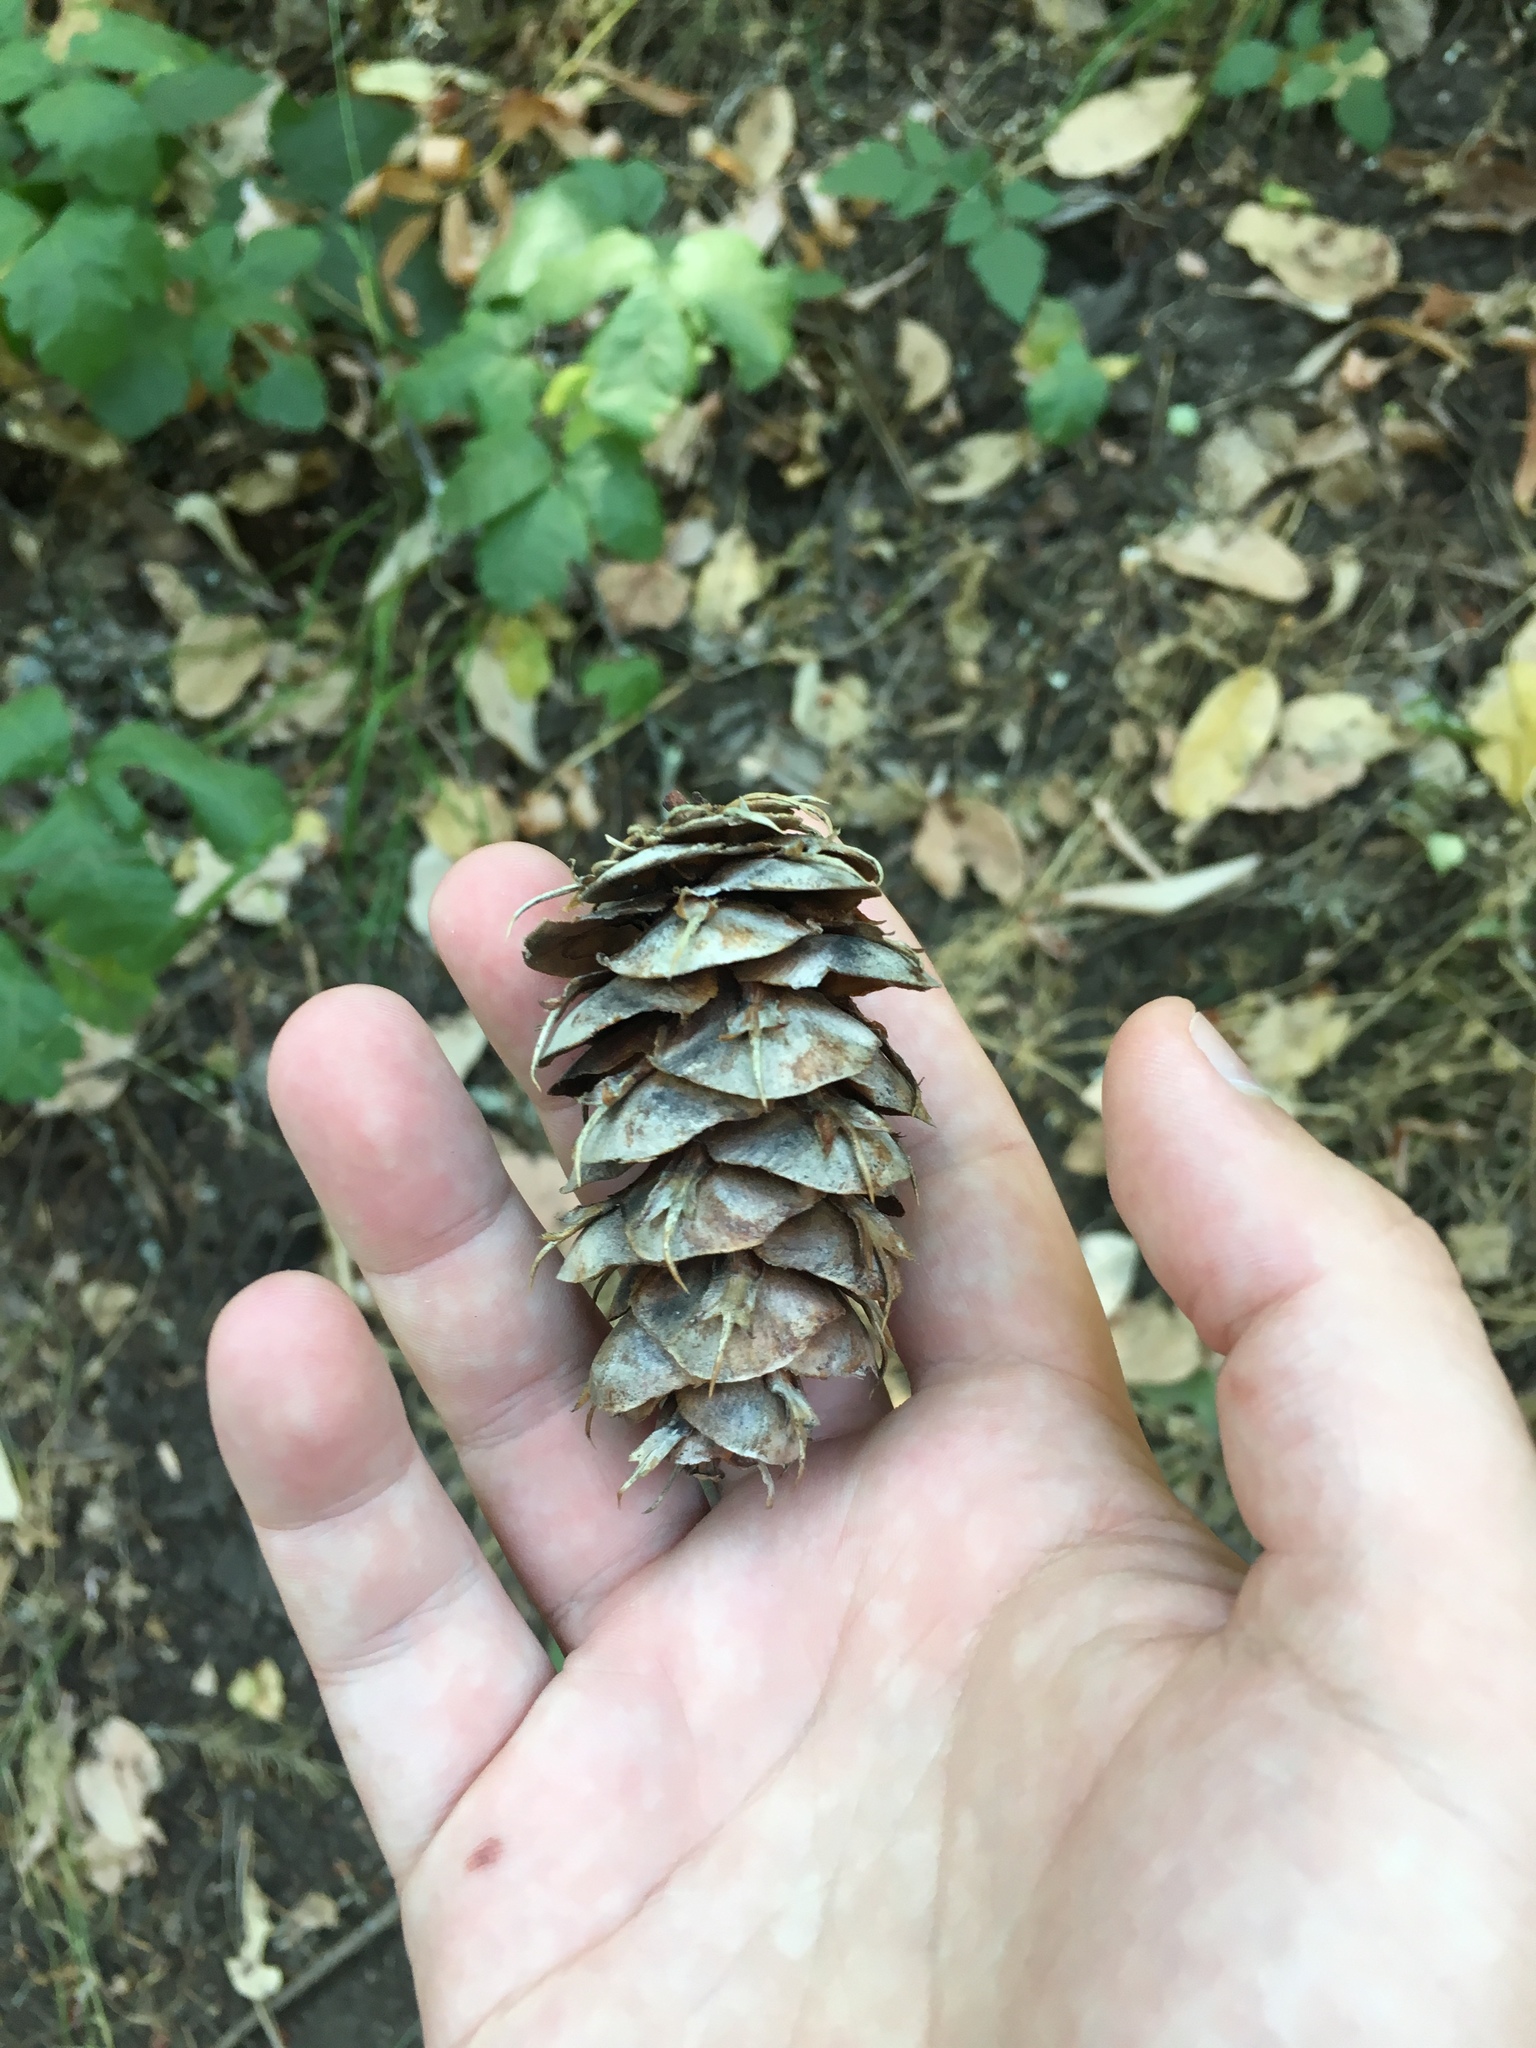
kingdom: Plantae
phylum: Tracheophyta
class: Pinopsida
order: Pinales
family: Pinaceae
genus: Pseudotsuga
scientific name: Pseudotsuga menziesii
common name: Douglas fir
